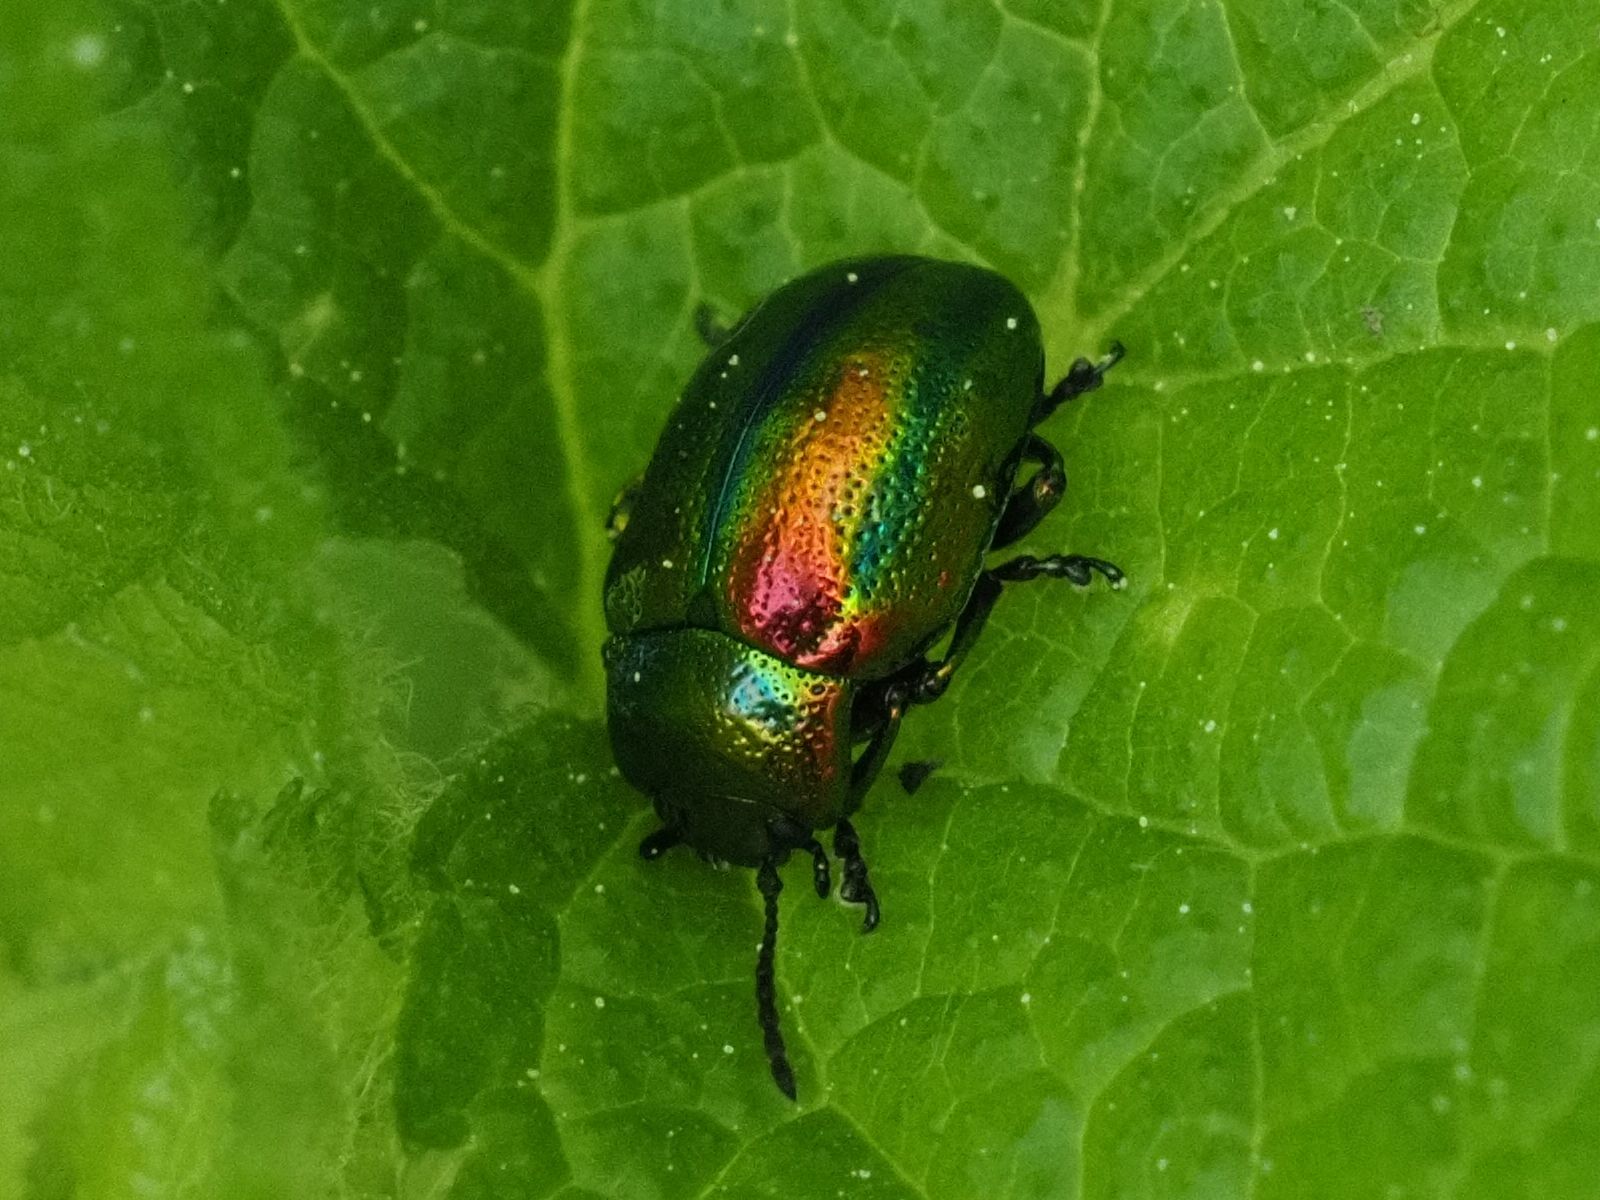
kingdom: Animalia
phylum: Arthropoda
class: Insecta
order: Coleoptera
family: Chrysomelidae
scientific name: Chrysomelidae
